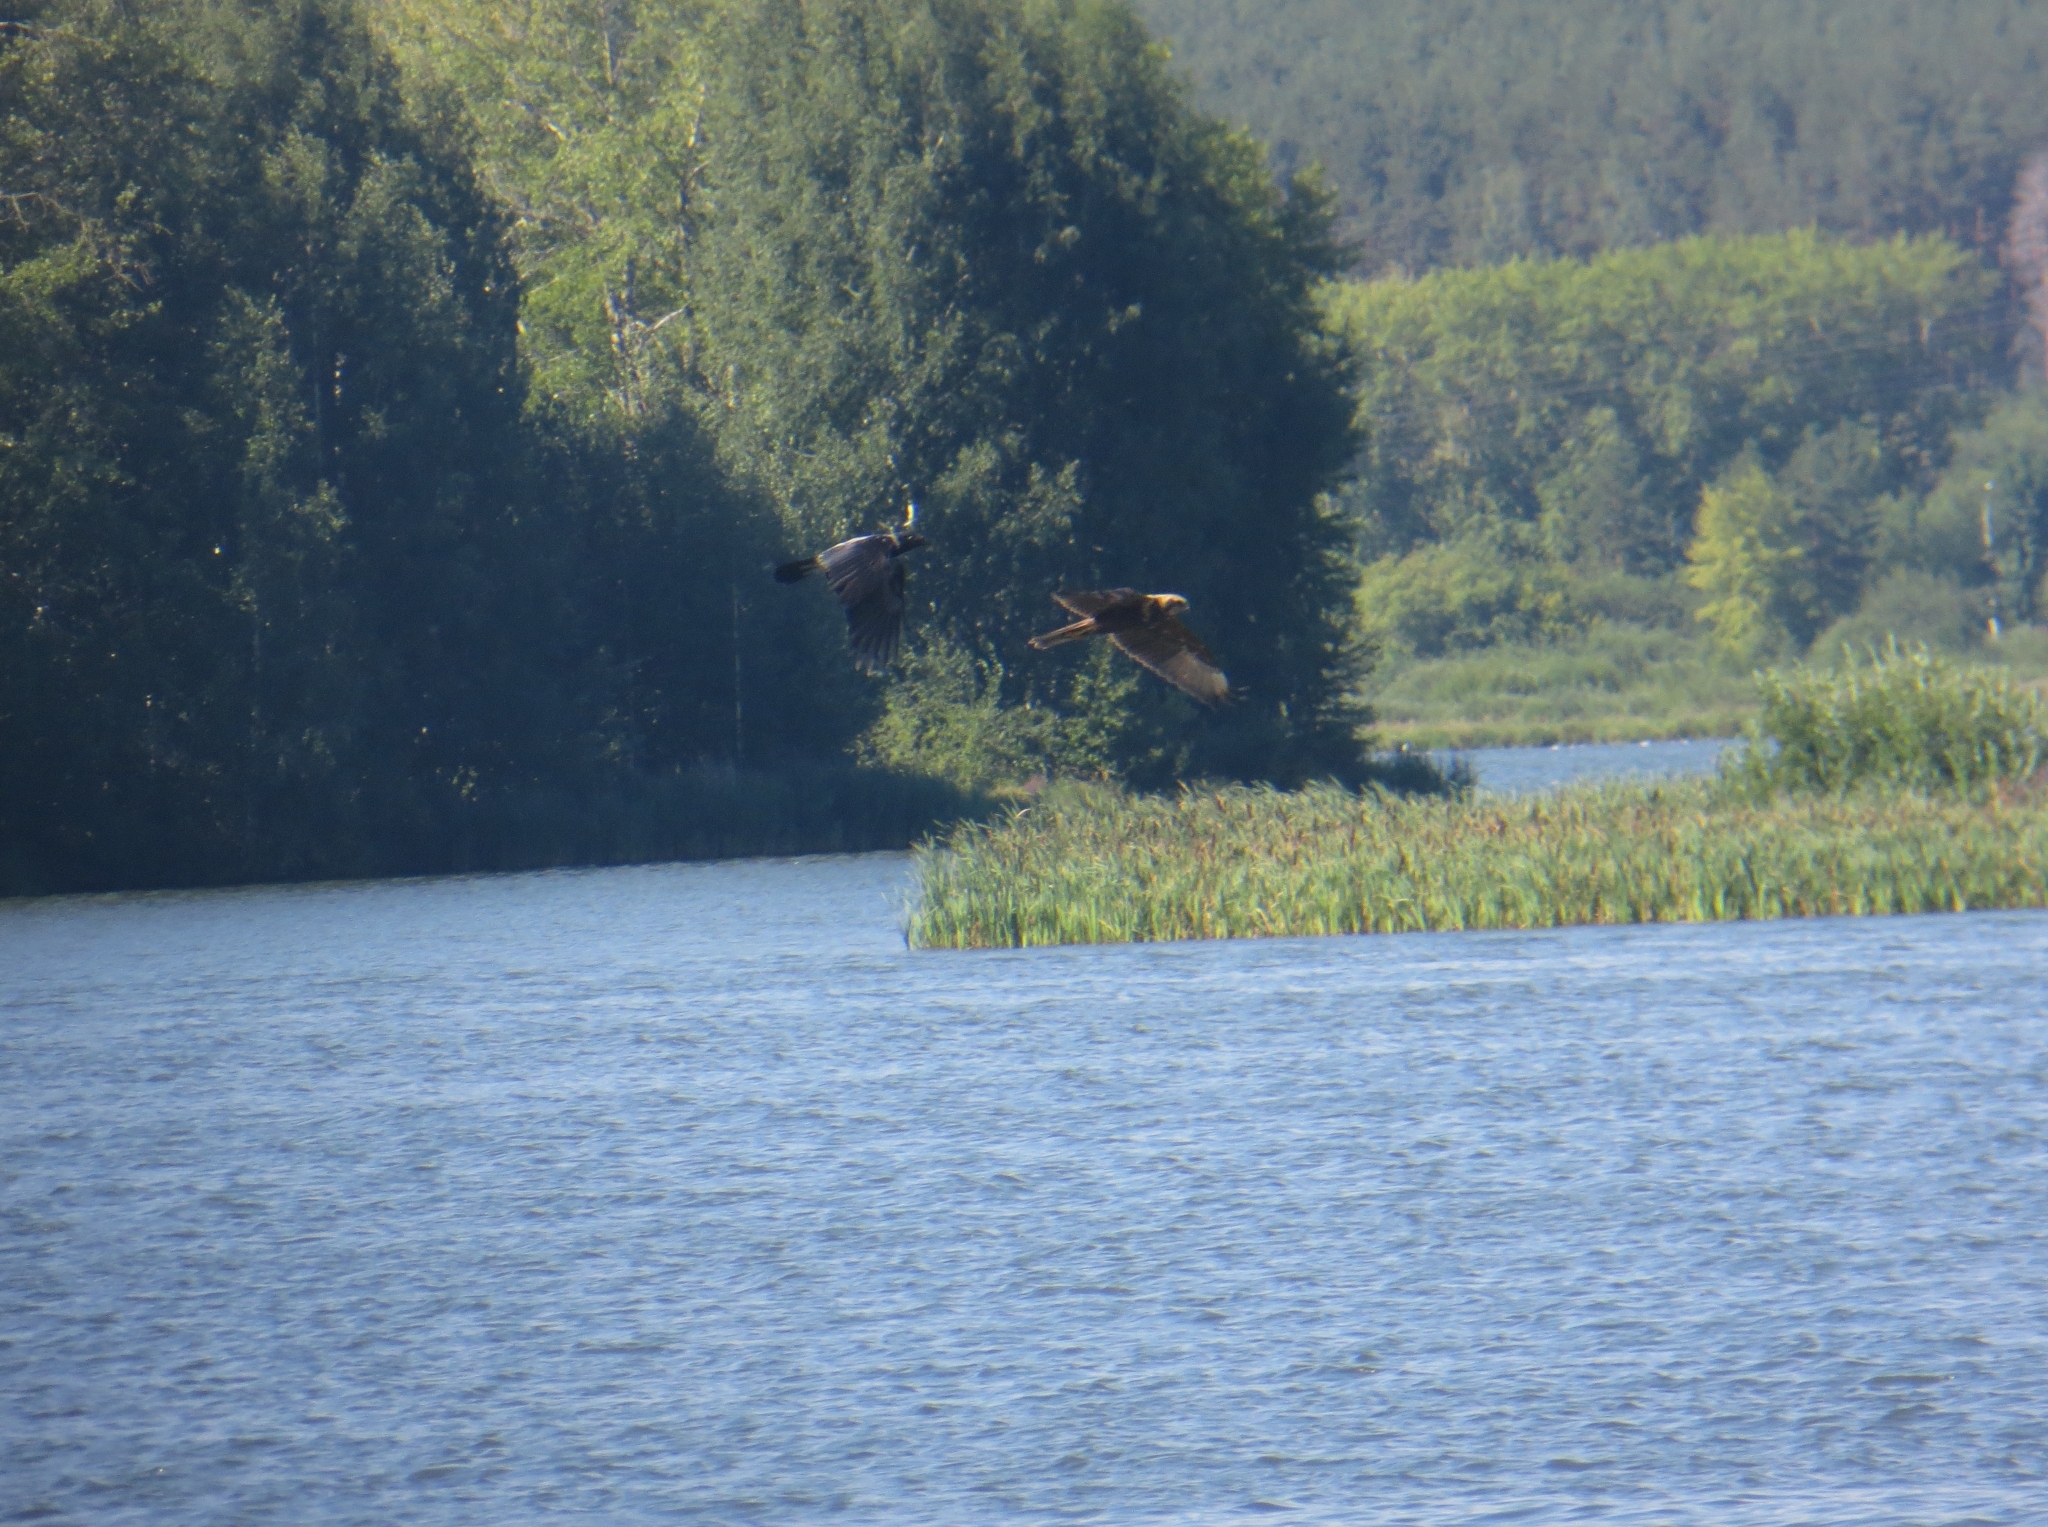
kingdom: Animalia
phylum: Chordata
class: Aves
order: Accipitriformes
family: Accipitridae
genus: Circus
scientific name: Circus aeruginosus
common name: Western marsh harrier
